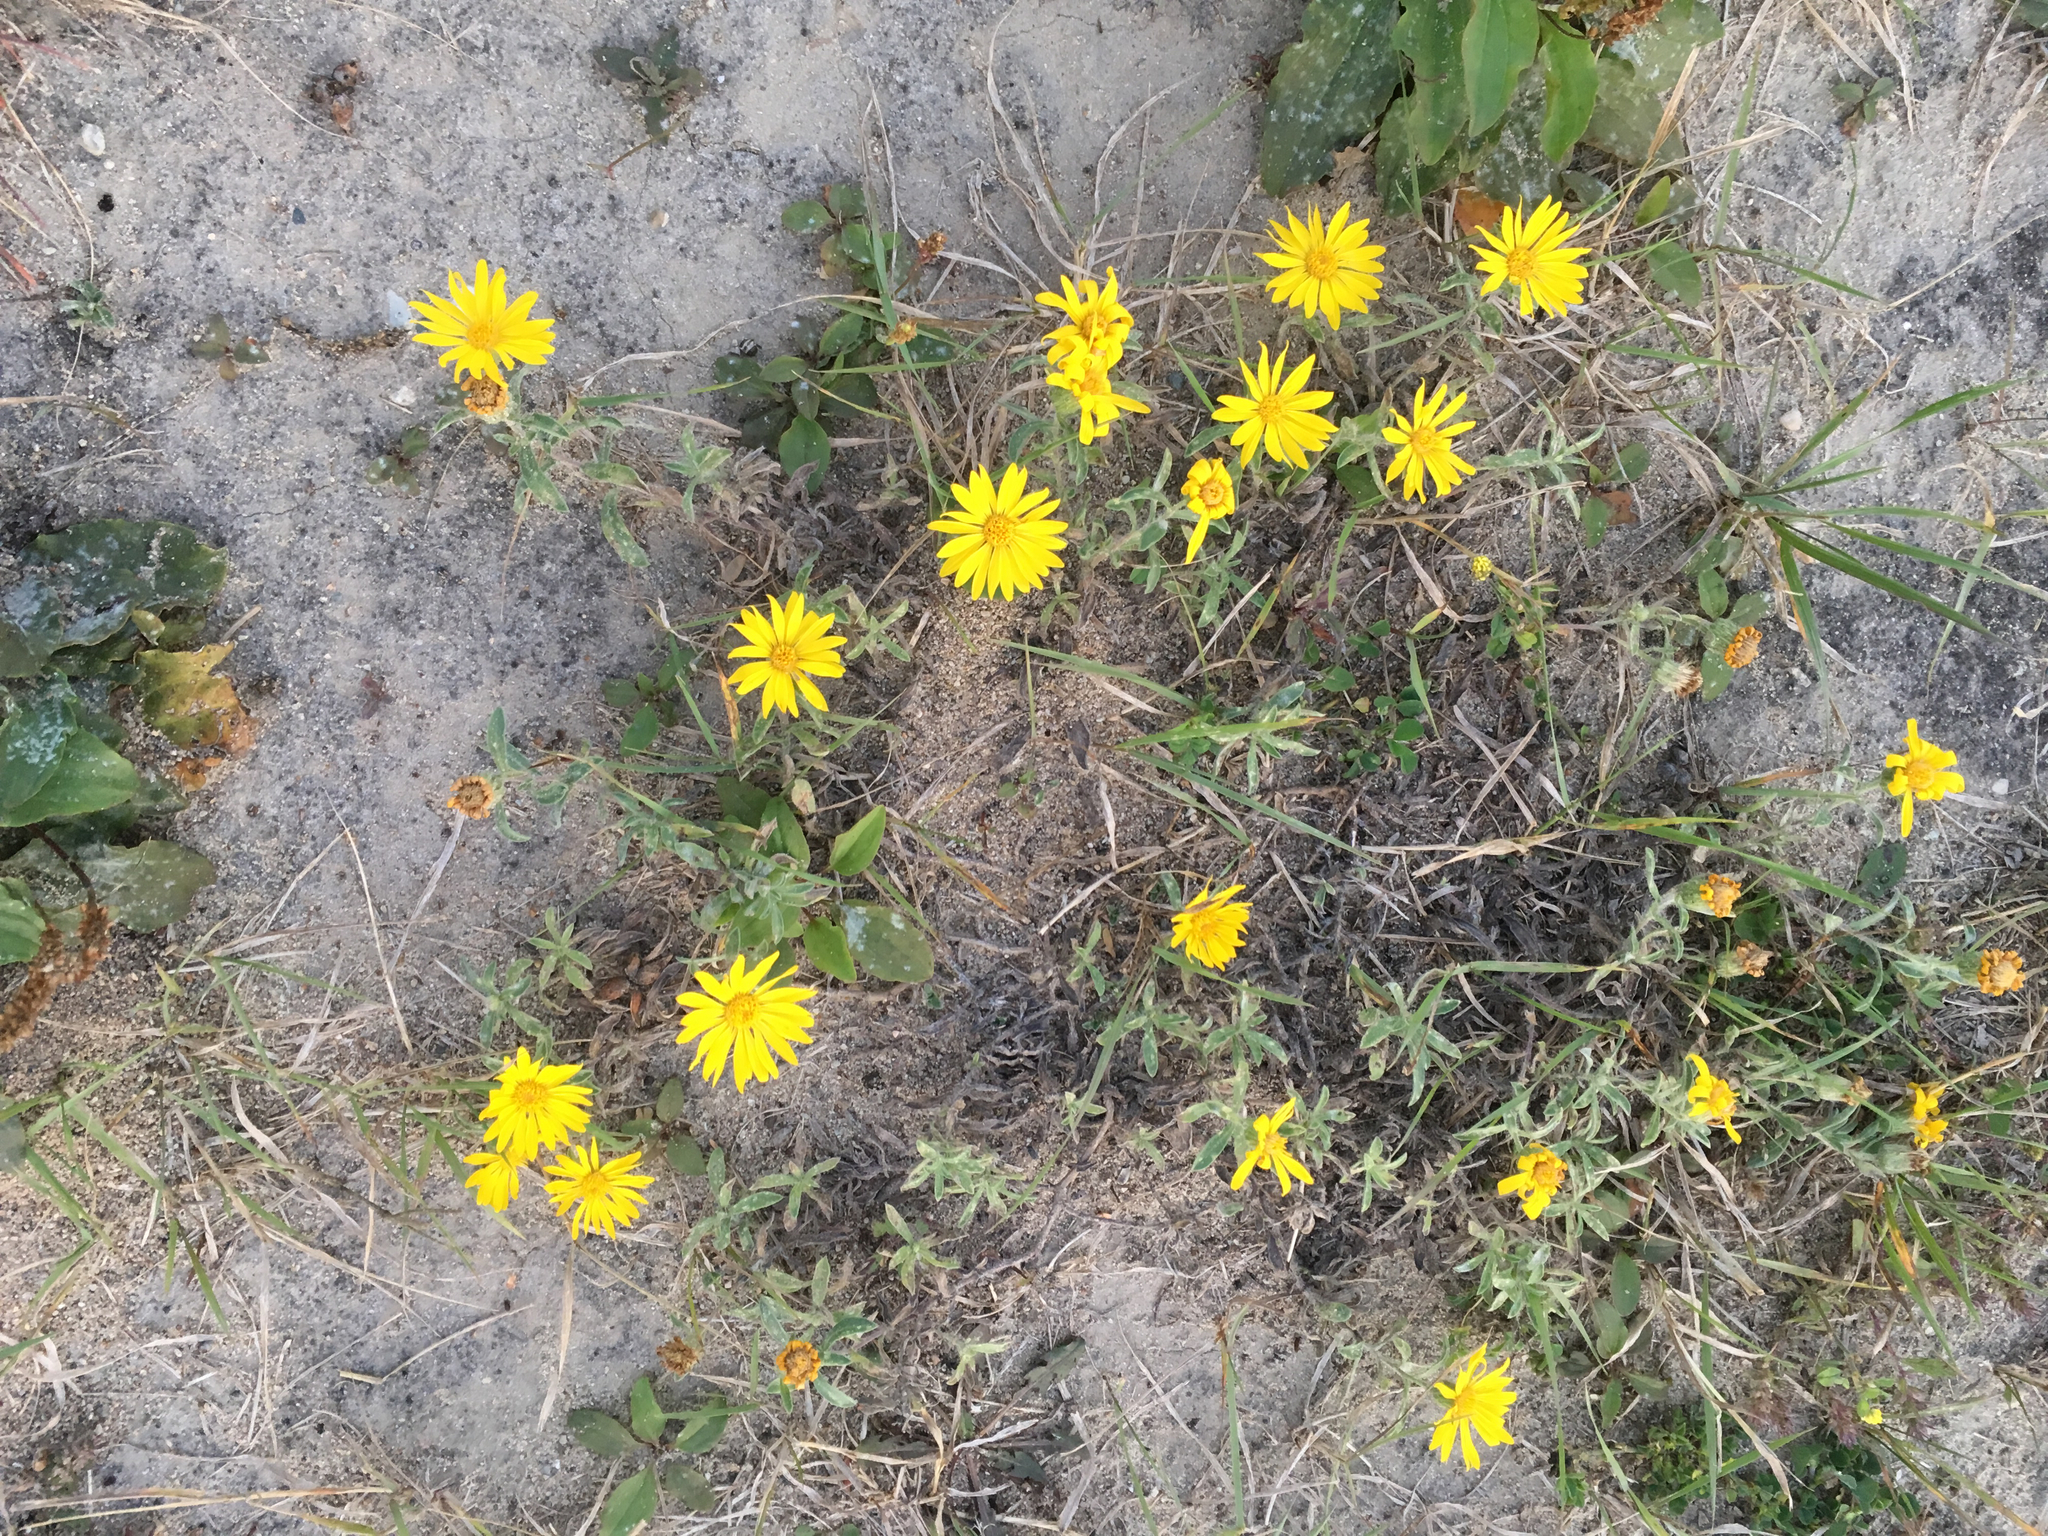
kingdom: Plantae
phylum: Tracheophyta
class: Magnoliopsida
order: Asterales
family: Asteraceae
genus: Heterotheca
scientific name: Heterotheca villosa
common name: Hairy false goldenaster
